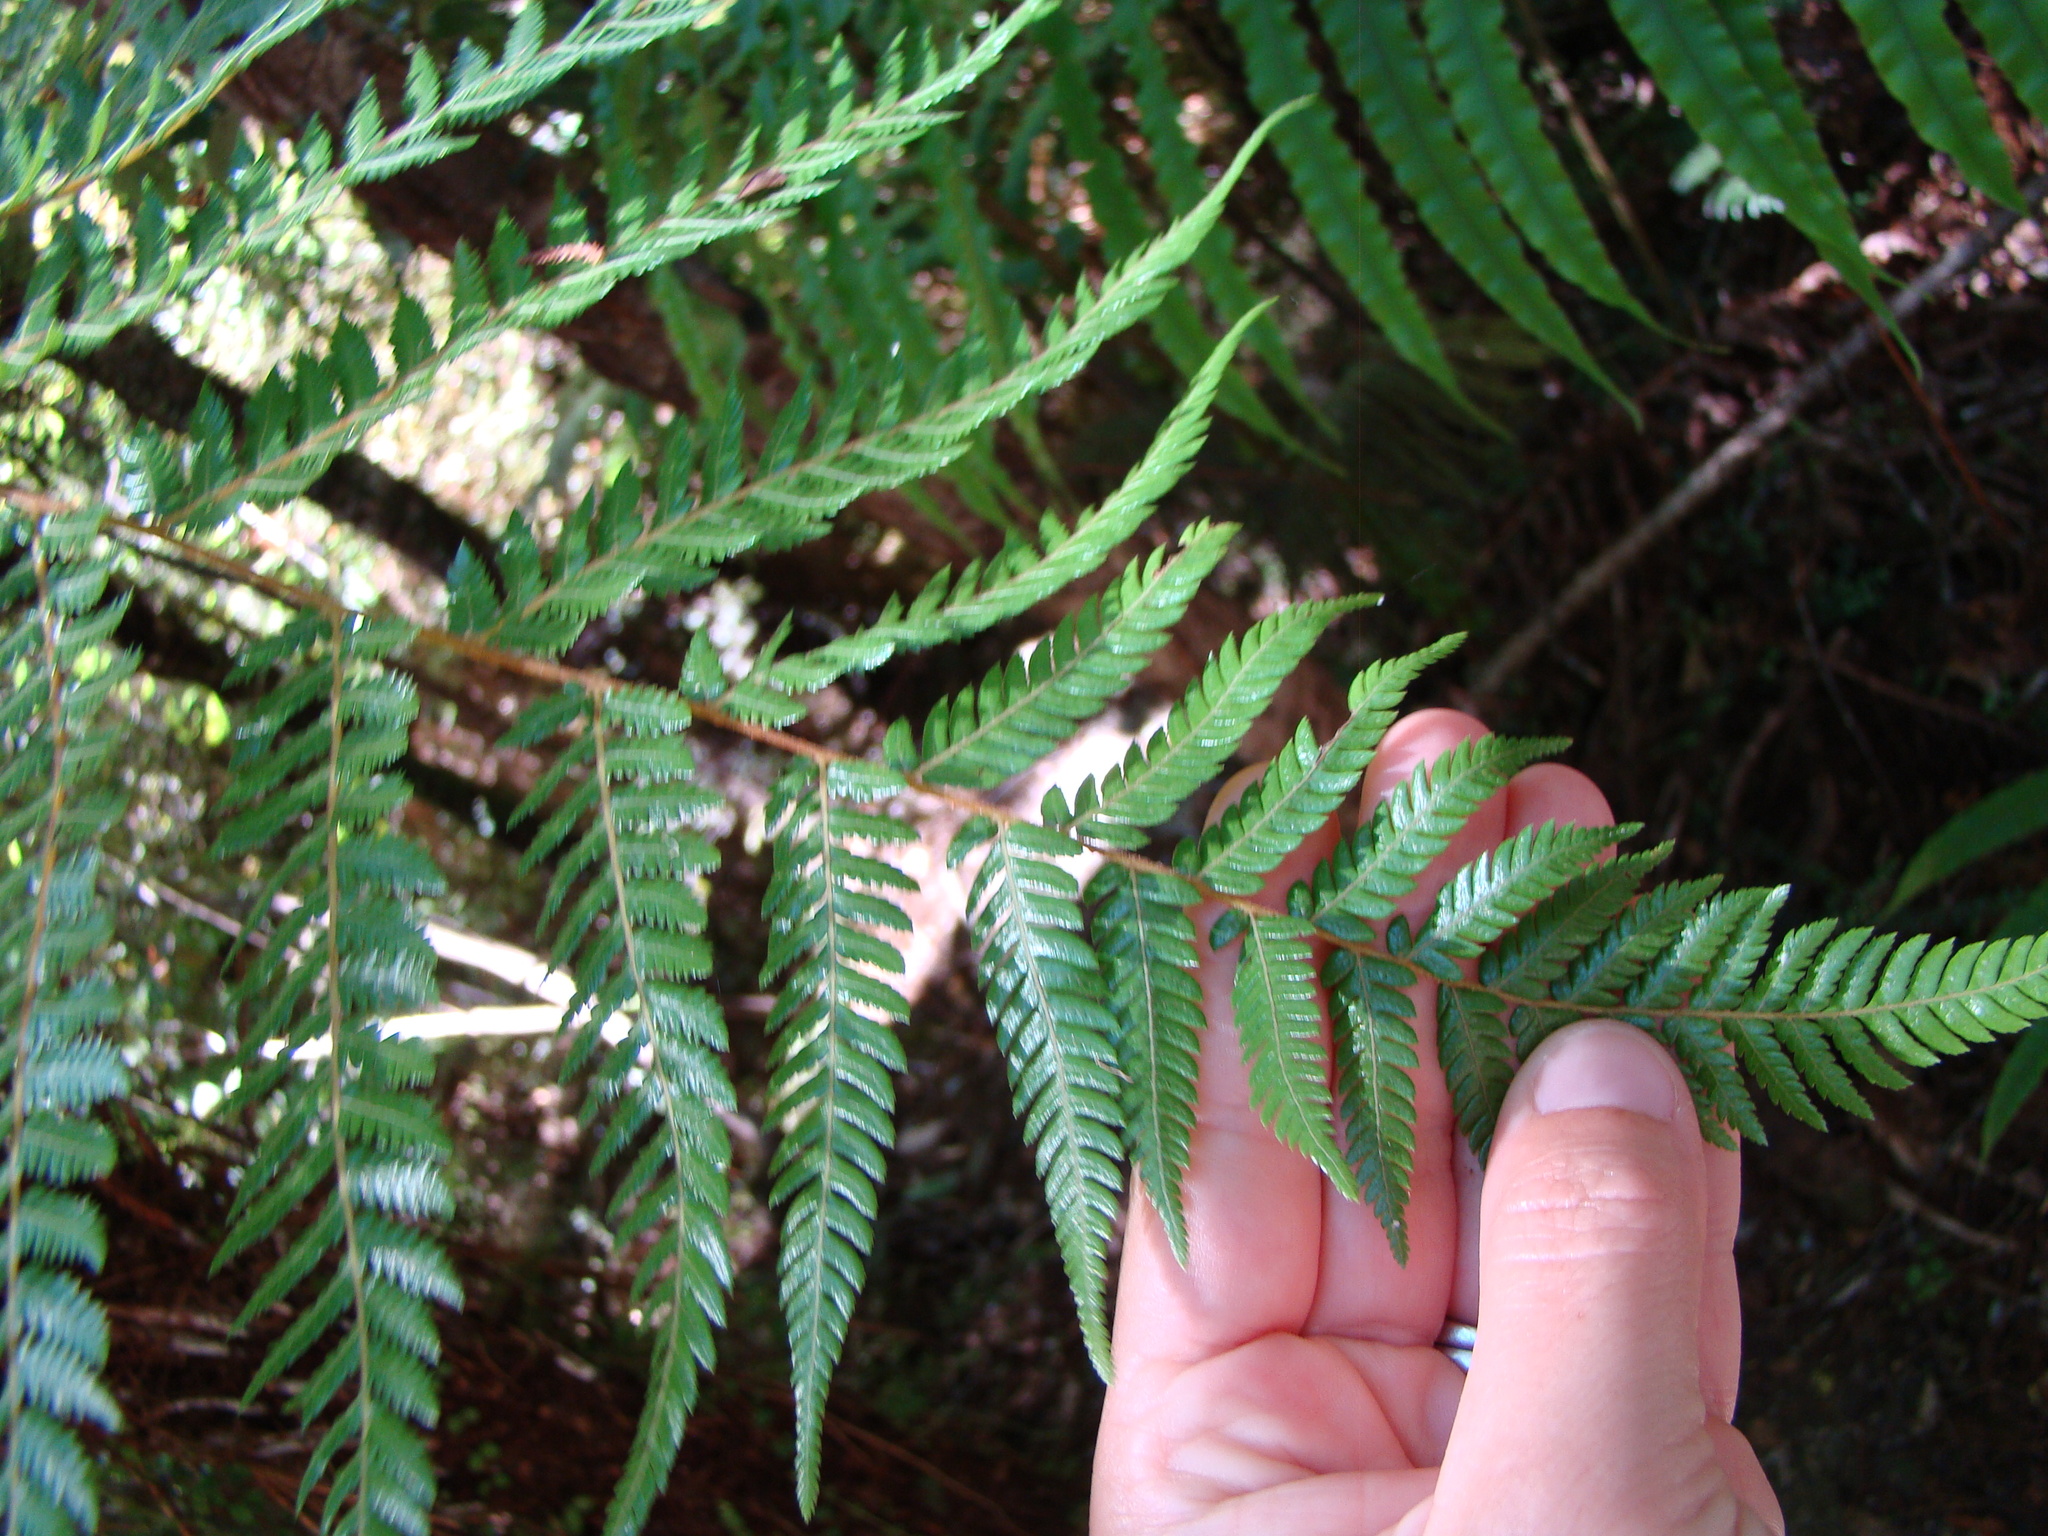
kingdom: Plantae
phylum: Tracheophyta
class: Polypodiopsida
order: Cyatheales
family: Cyatheaceae
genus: Alsophila
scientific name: Alsophila smithii
